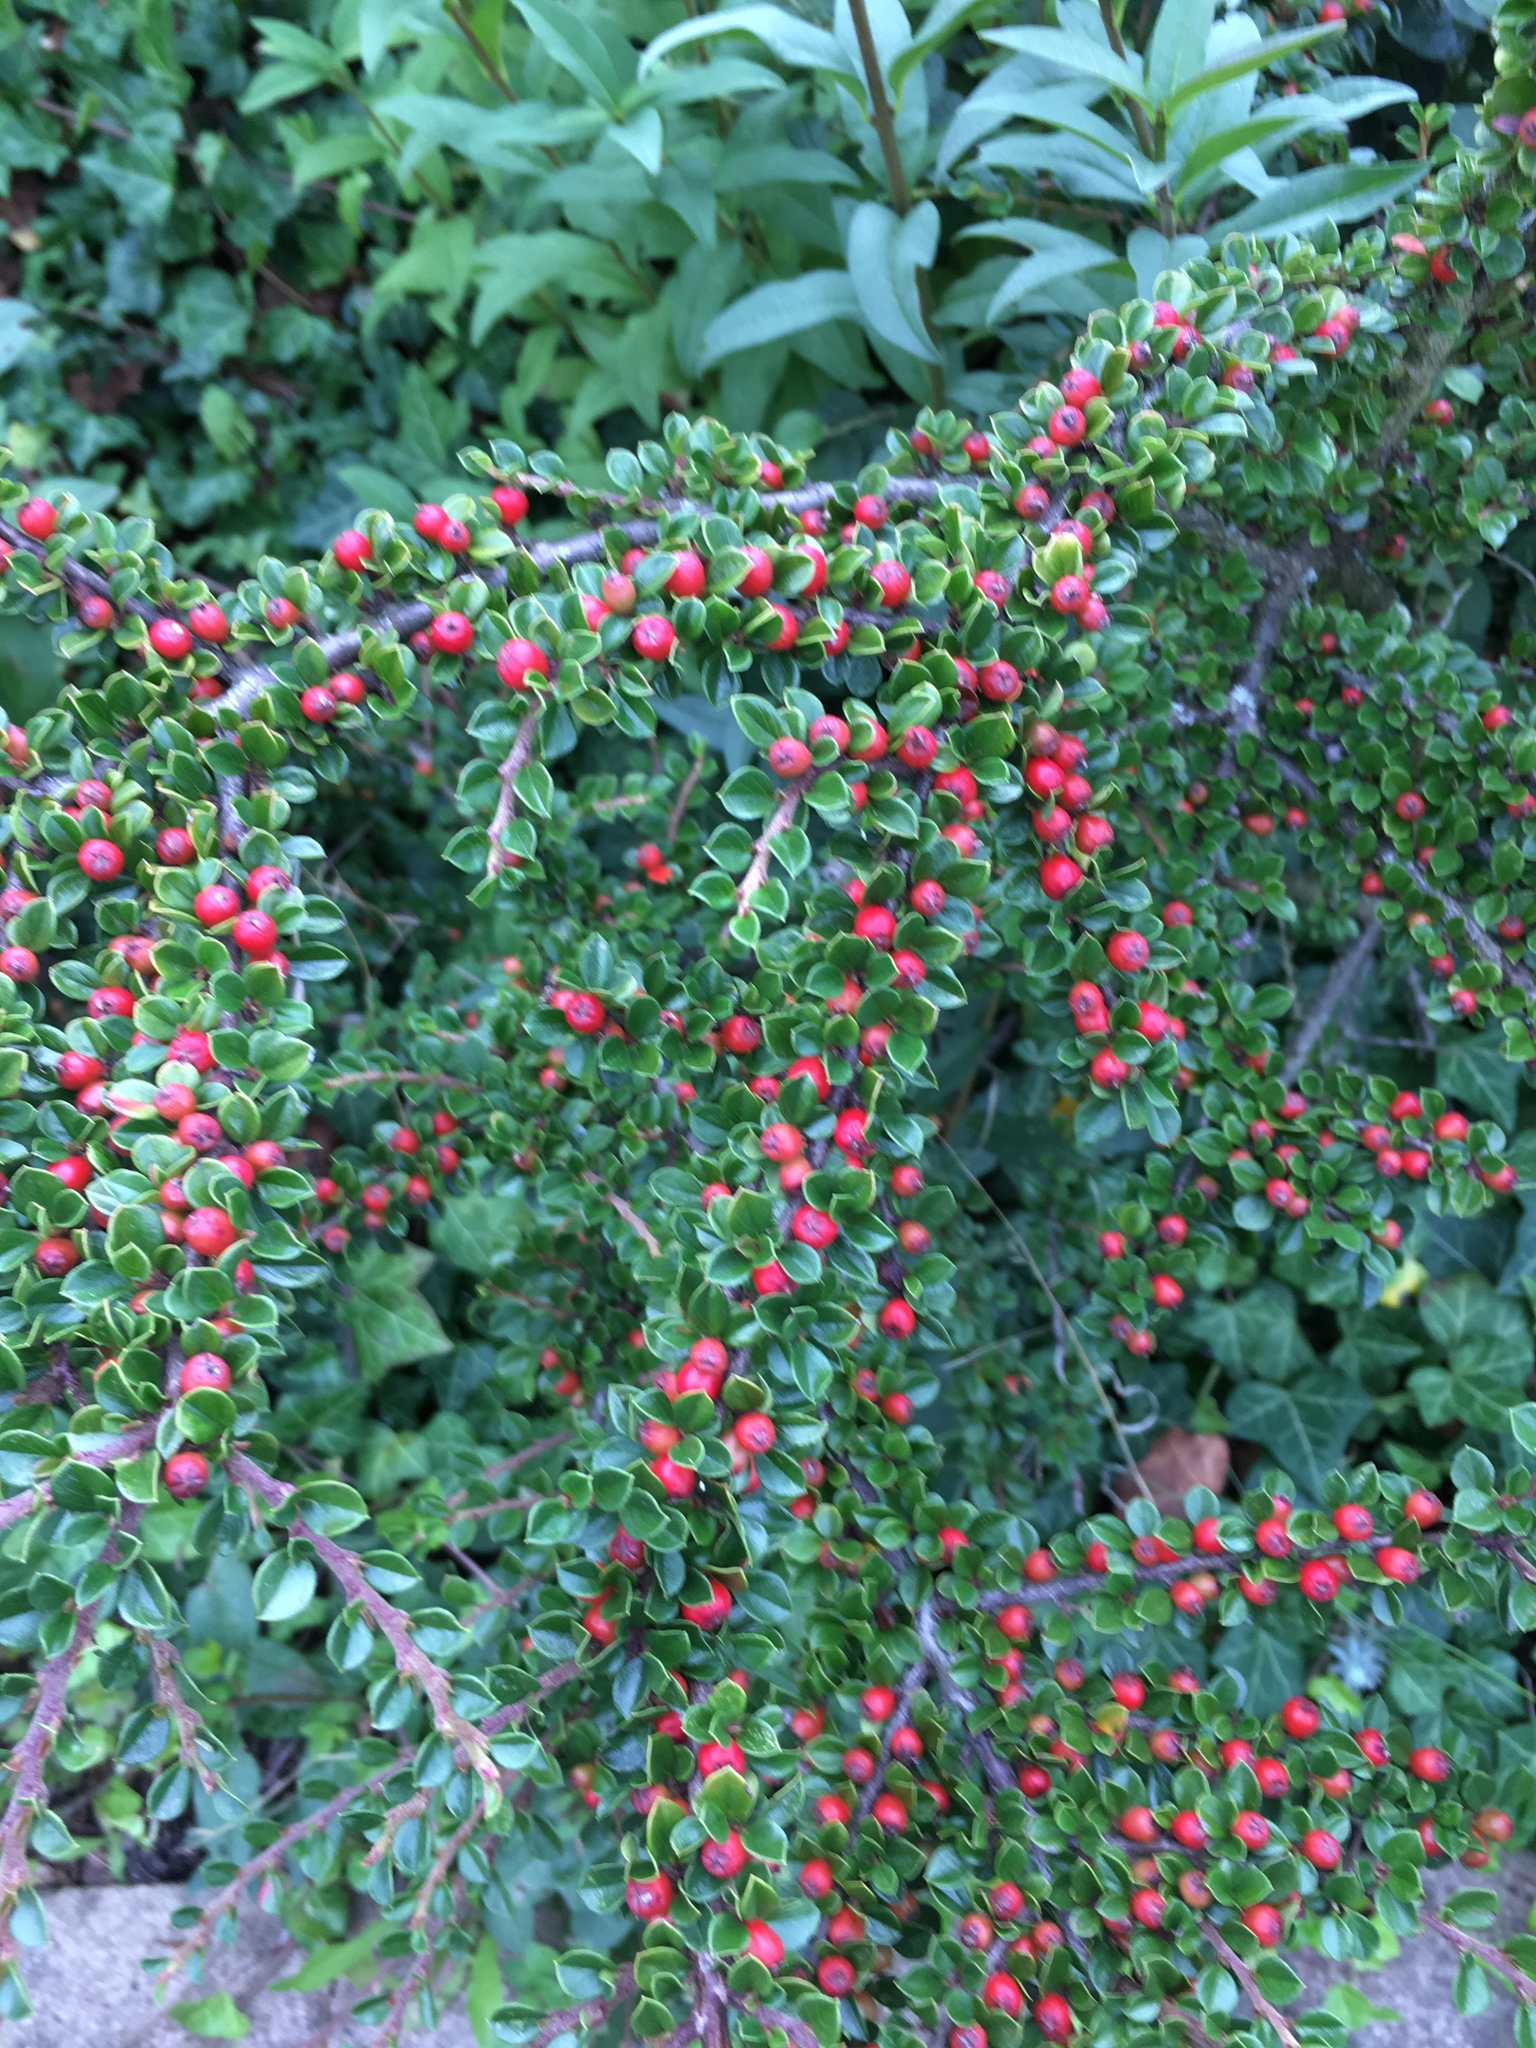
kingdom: Plantae
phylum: Tracheophyta
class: Magnoliopsida
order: Rosales
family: Rosaceae
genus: Cotoneaster
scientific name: Cotoneaster horizontalis
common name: Wall cotoneaster
